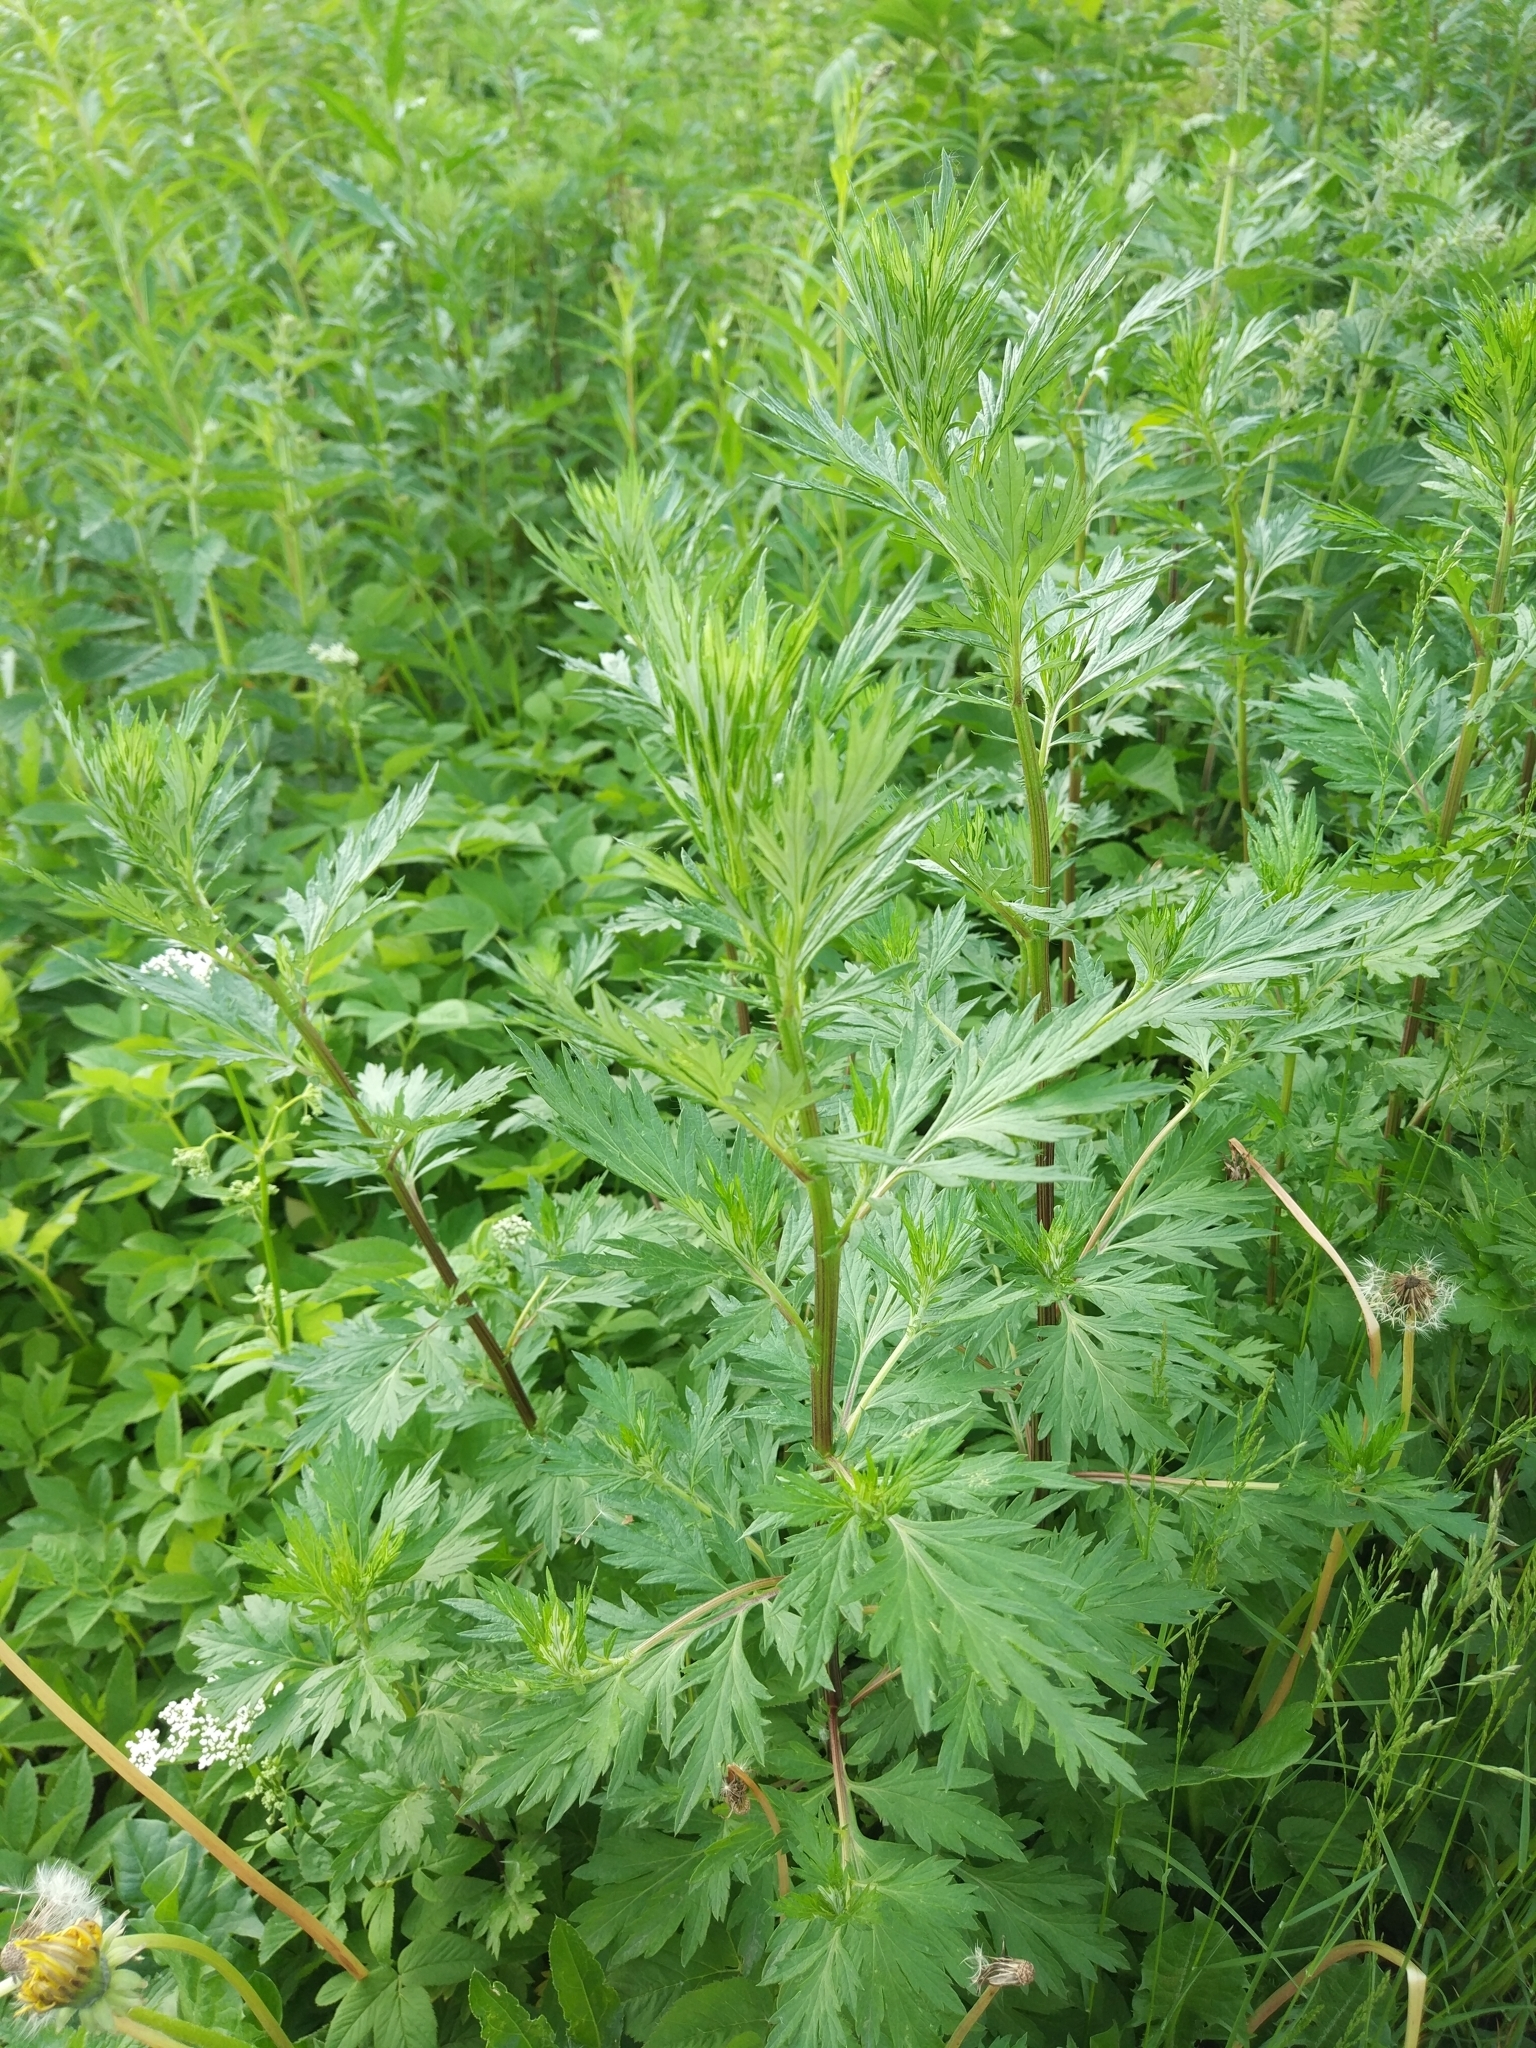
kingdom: Plantae
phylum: Tracheophyta
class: Magnoliopsida
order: Asterales
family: Asteraceae
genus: Artemisia
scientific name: Artemisia vulgaris
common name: Mugwort
